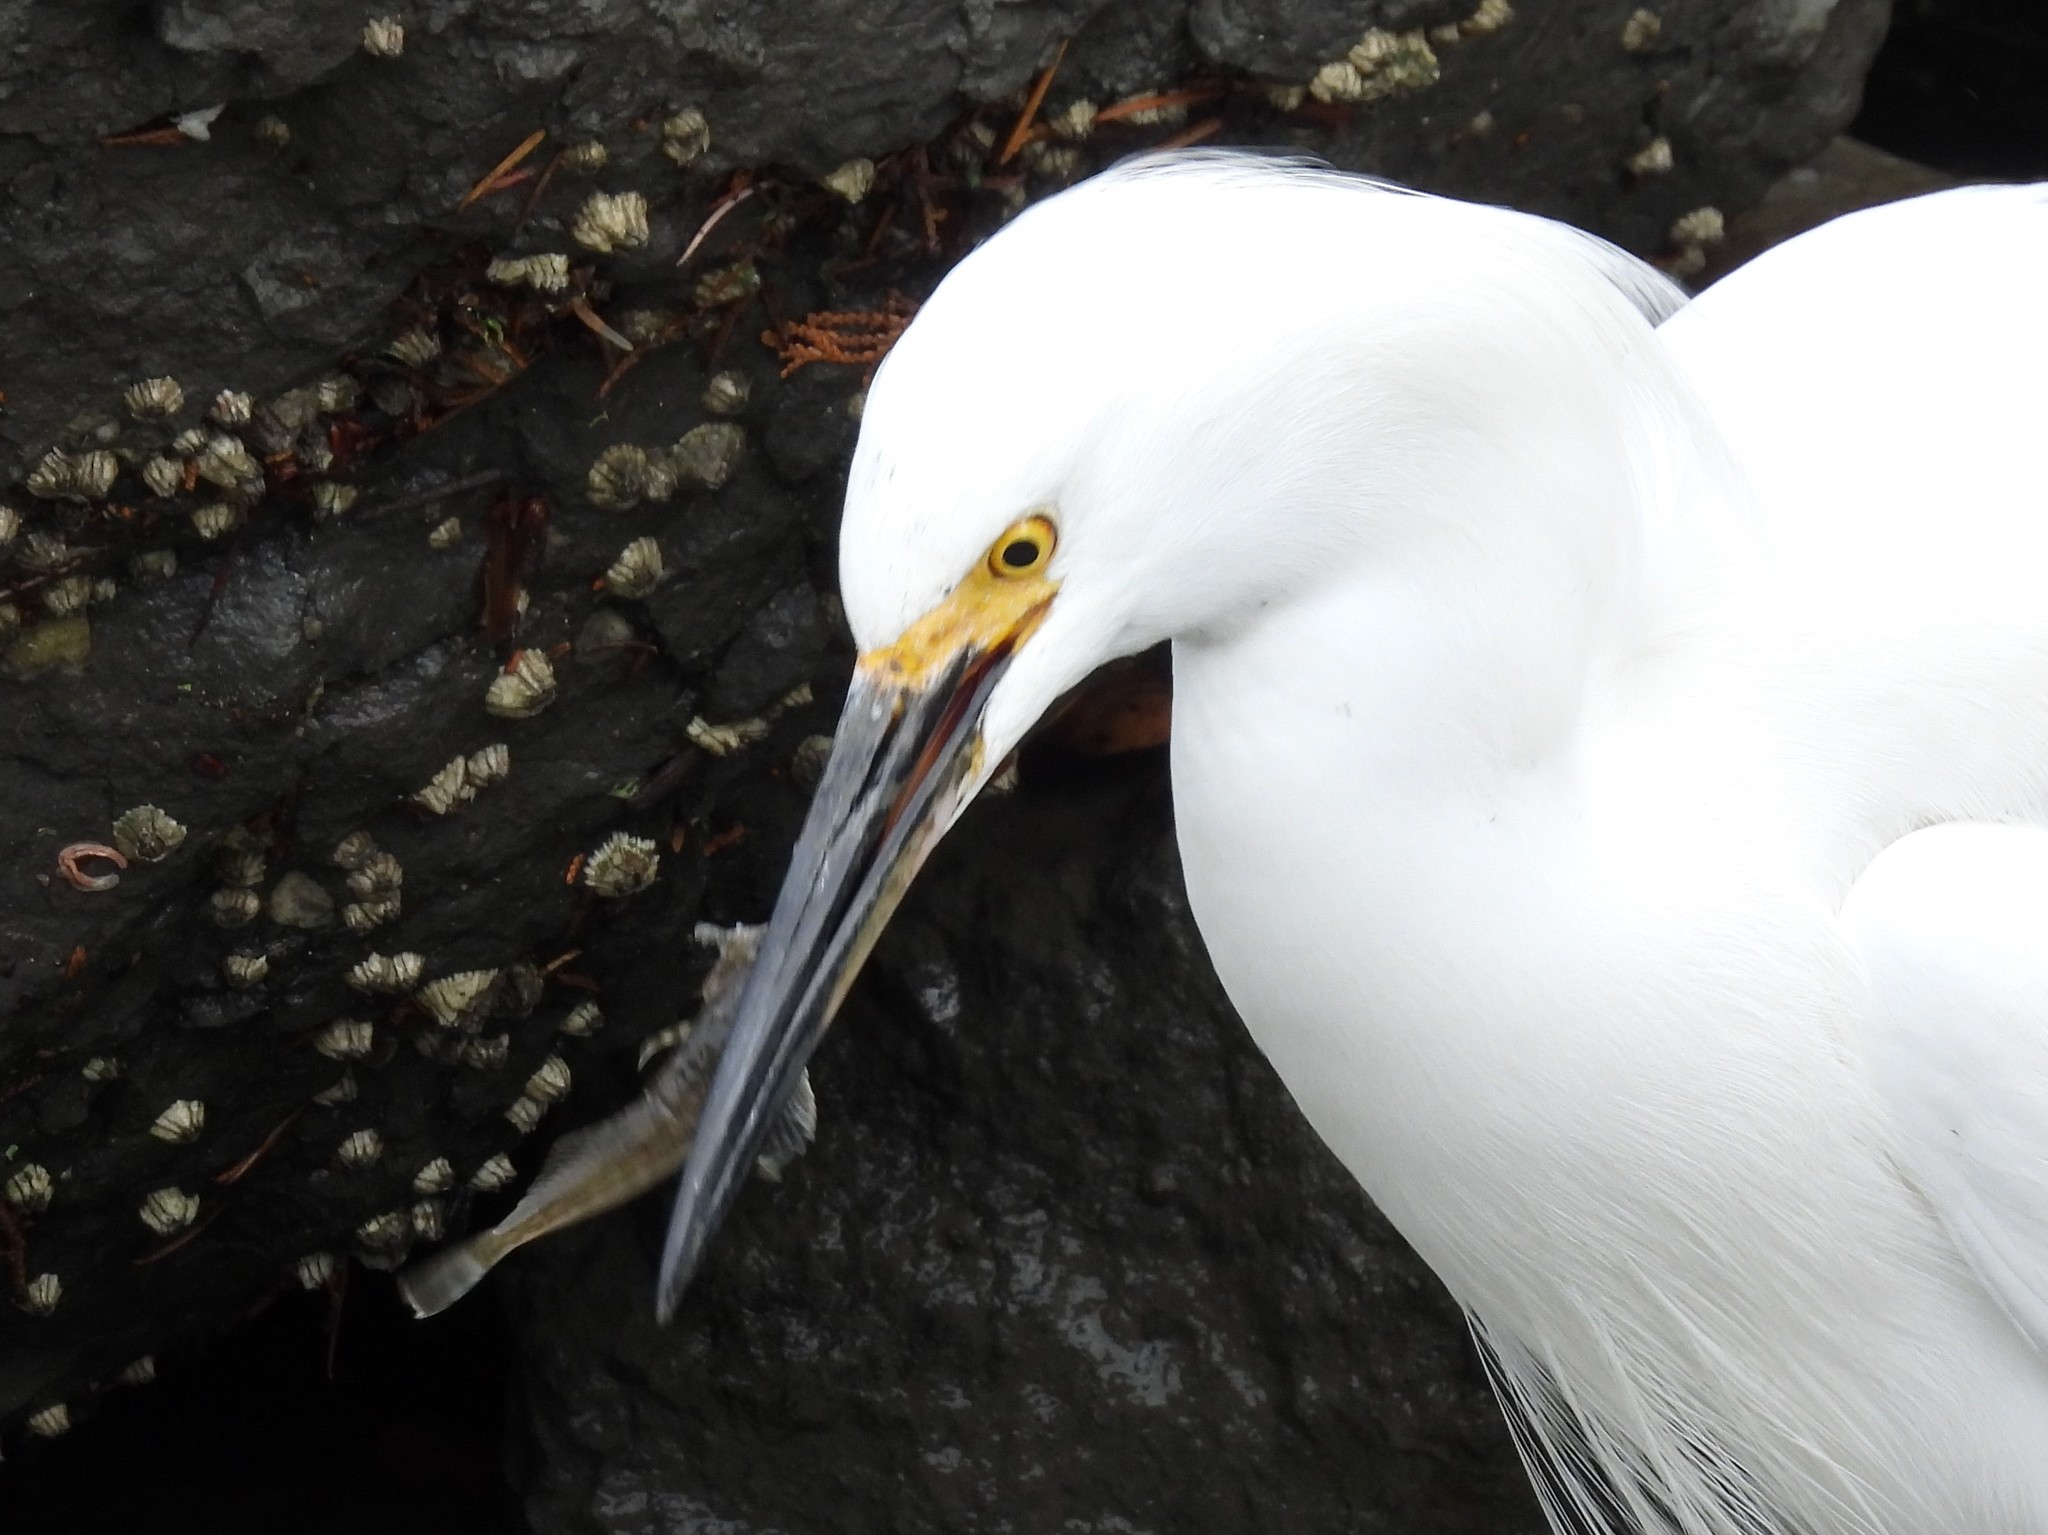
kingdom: Animalia
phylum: Chordata
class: Aves
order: Pelecaniformes
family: Ardeidae
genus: Egretta
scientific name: Egretta thula
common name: Snowy egret
